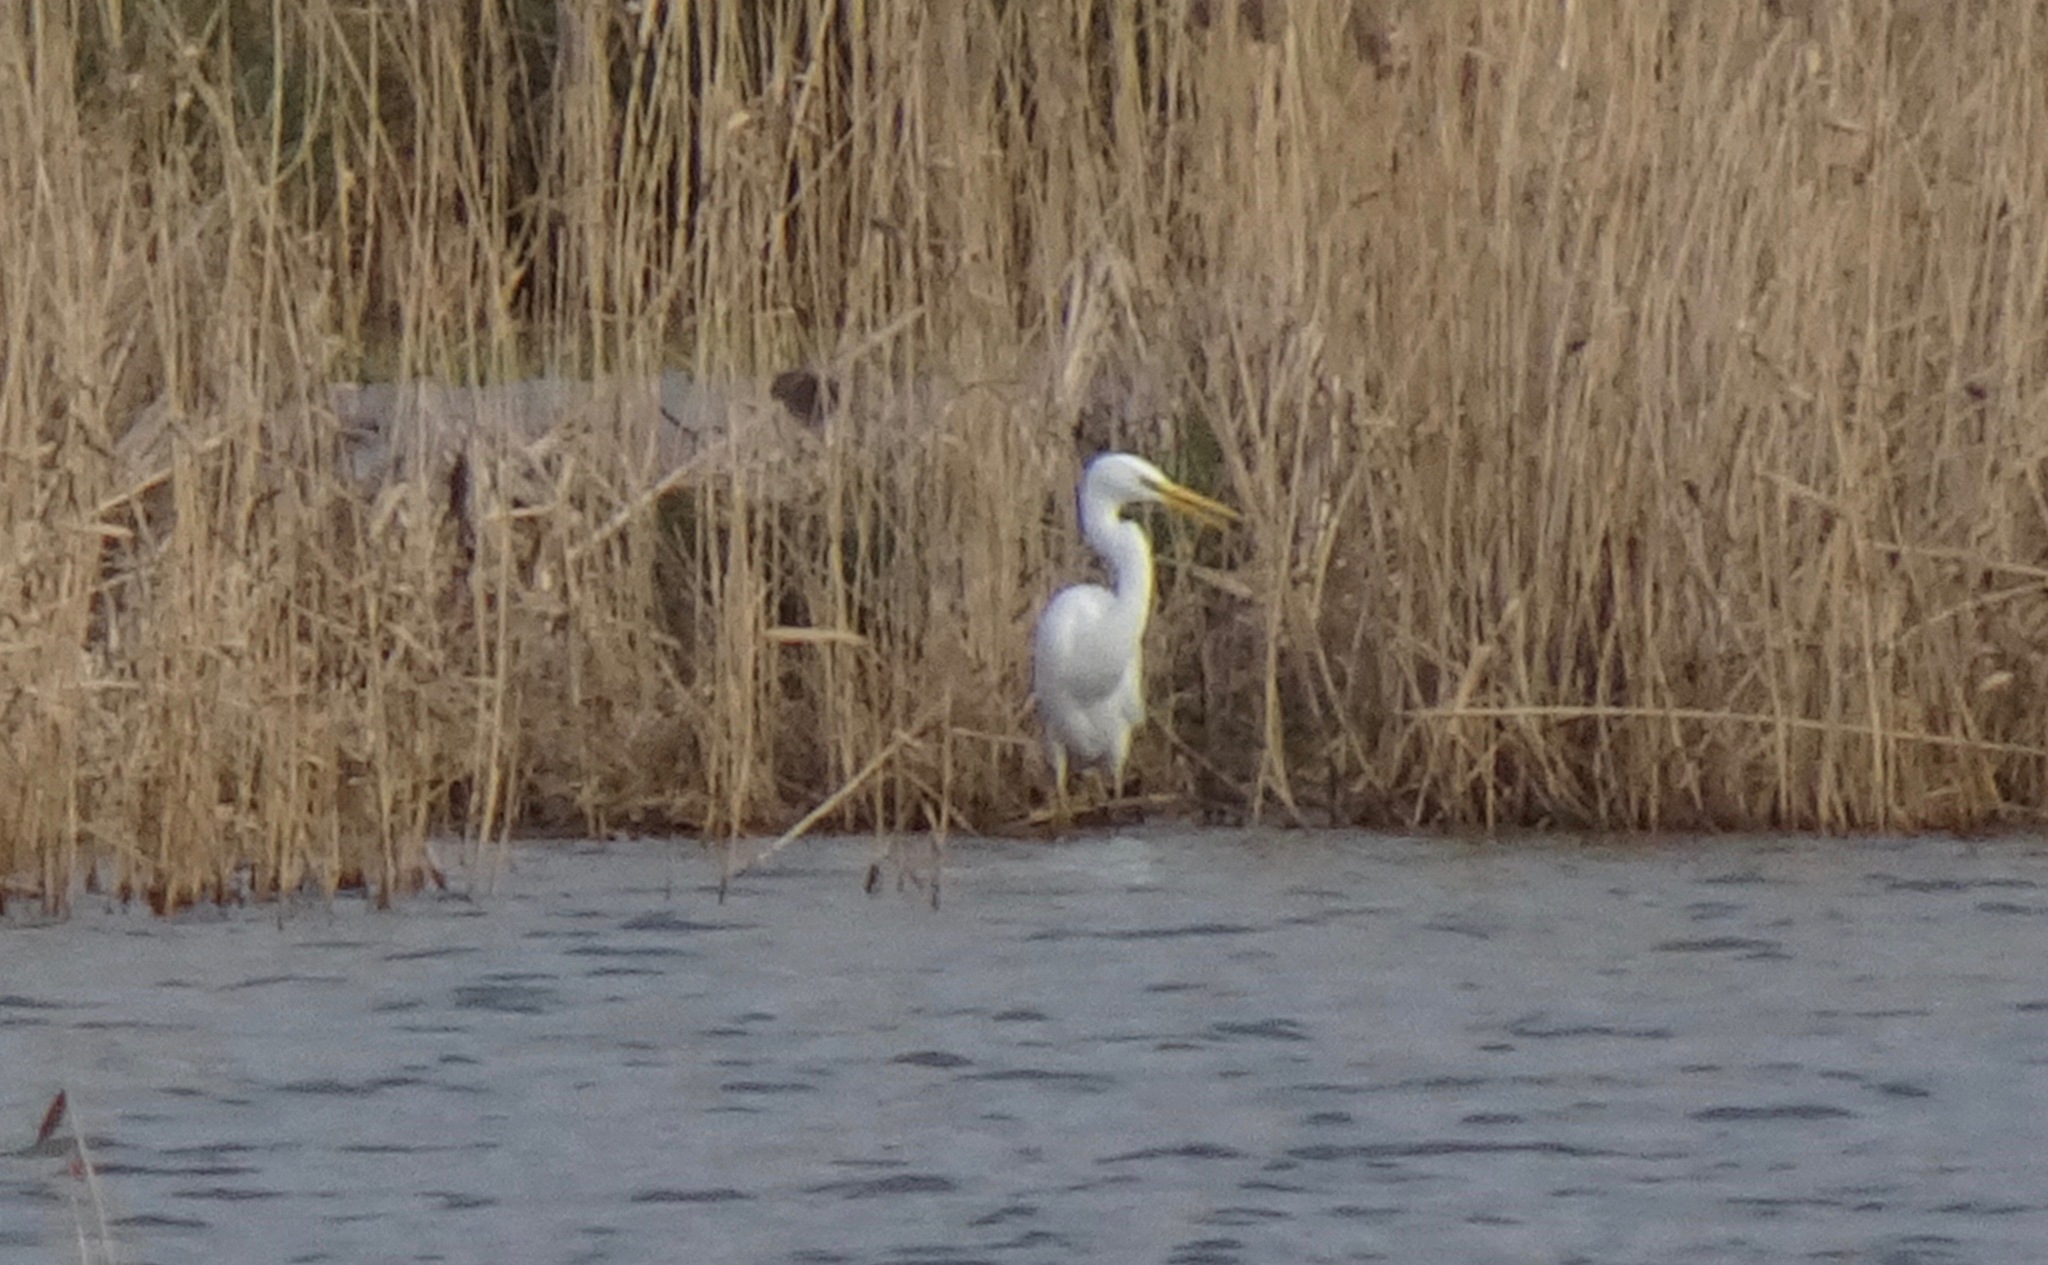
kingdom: Animalia
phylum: Chordata
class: Aves
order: Pelecaniformes
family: Ardeidae
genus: Ardea
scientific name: Ardea alba
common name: Great egret
